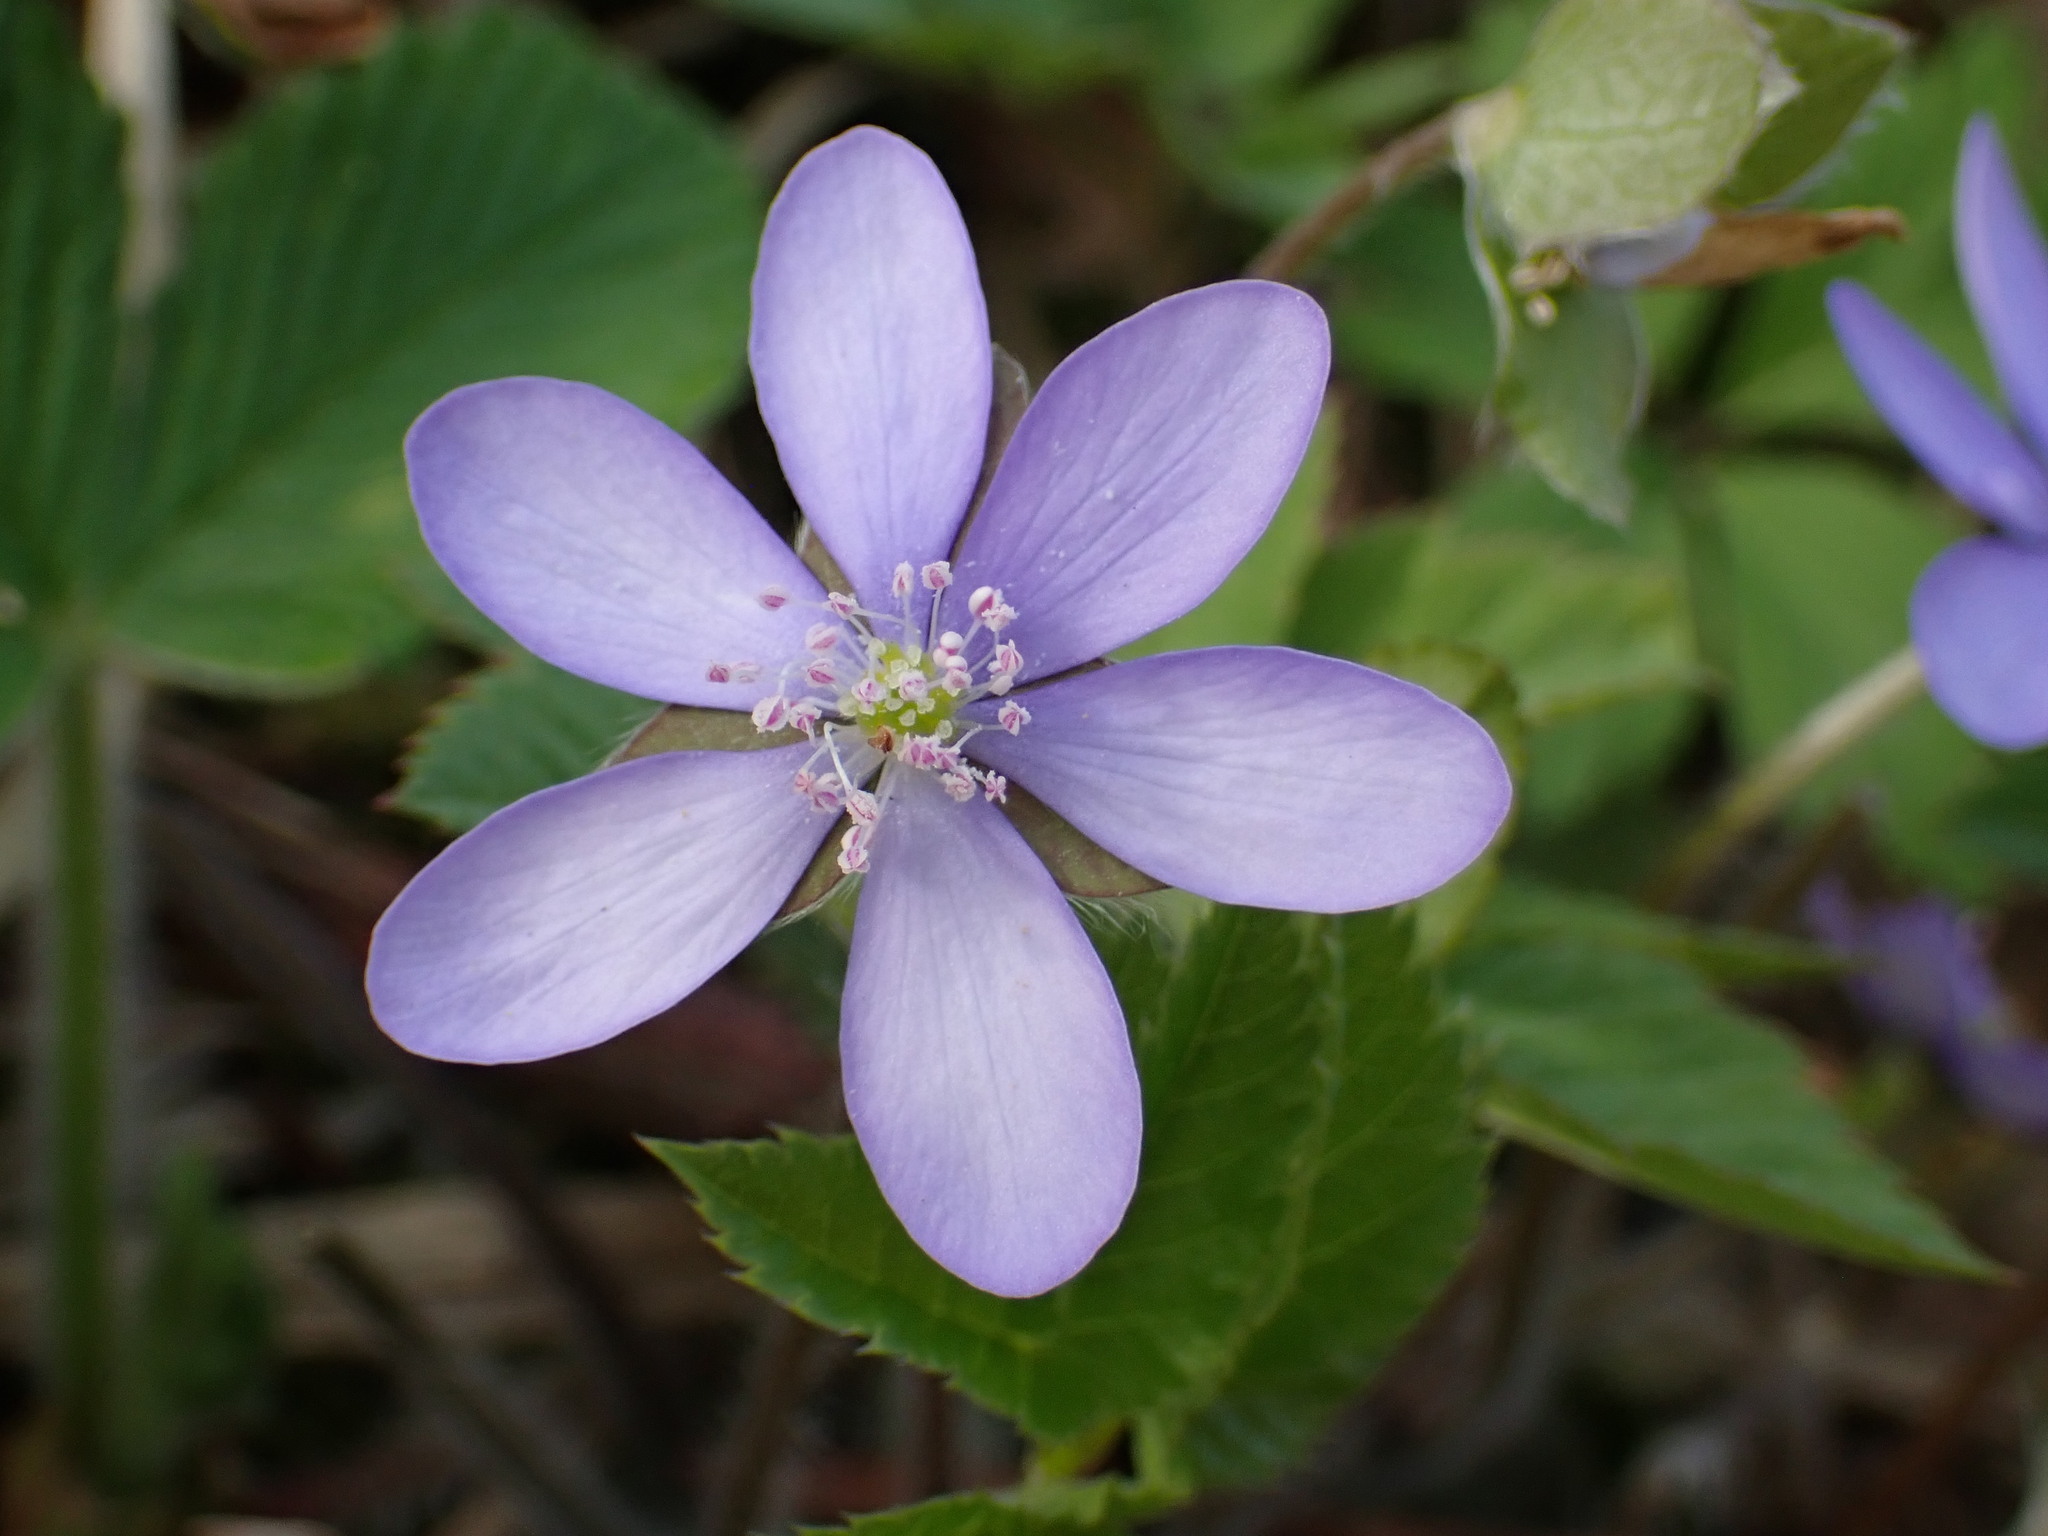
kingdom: Plantae
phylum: Tracheophyta
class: Magnoliopsida
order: Ranunculales
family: Ranunculaceae
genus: Hepatica
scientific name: Hepatica nobilis
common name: Liverleaf
